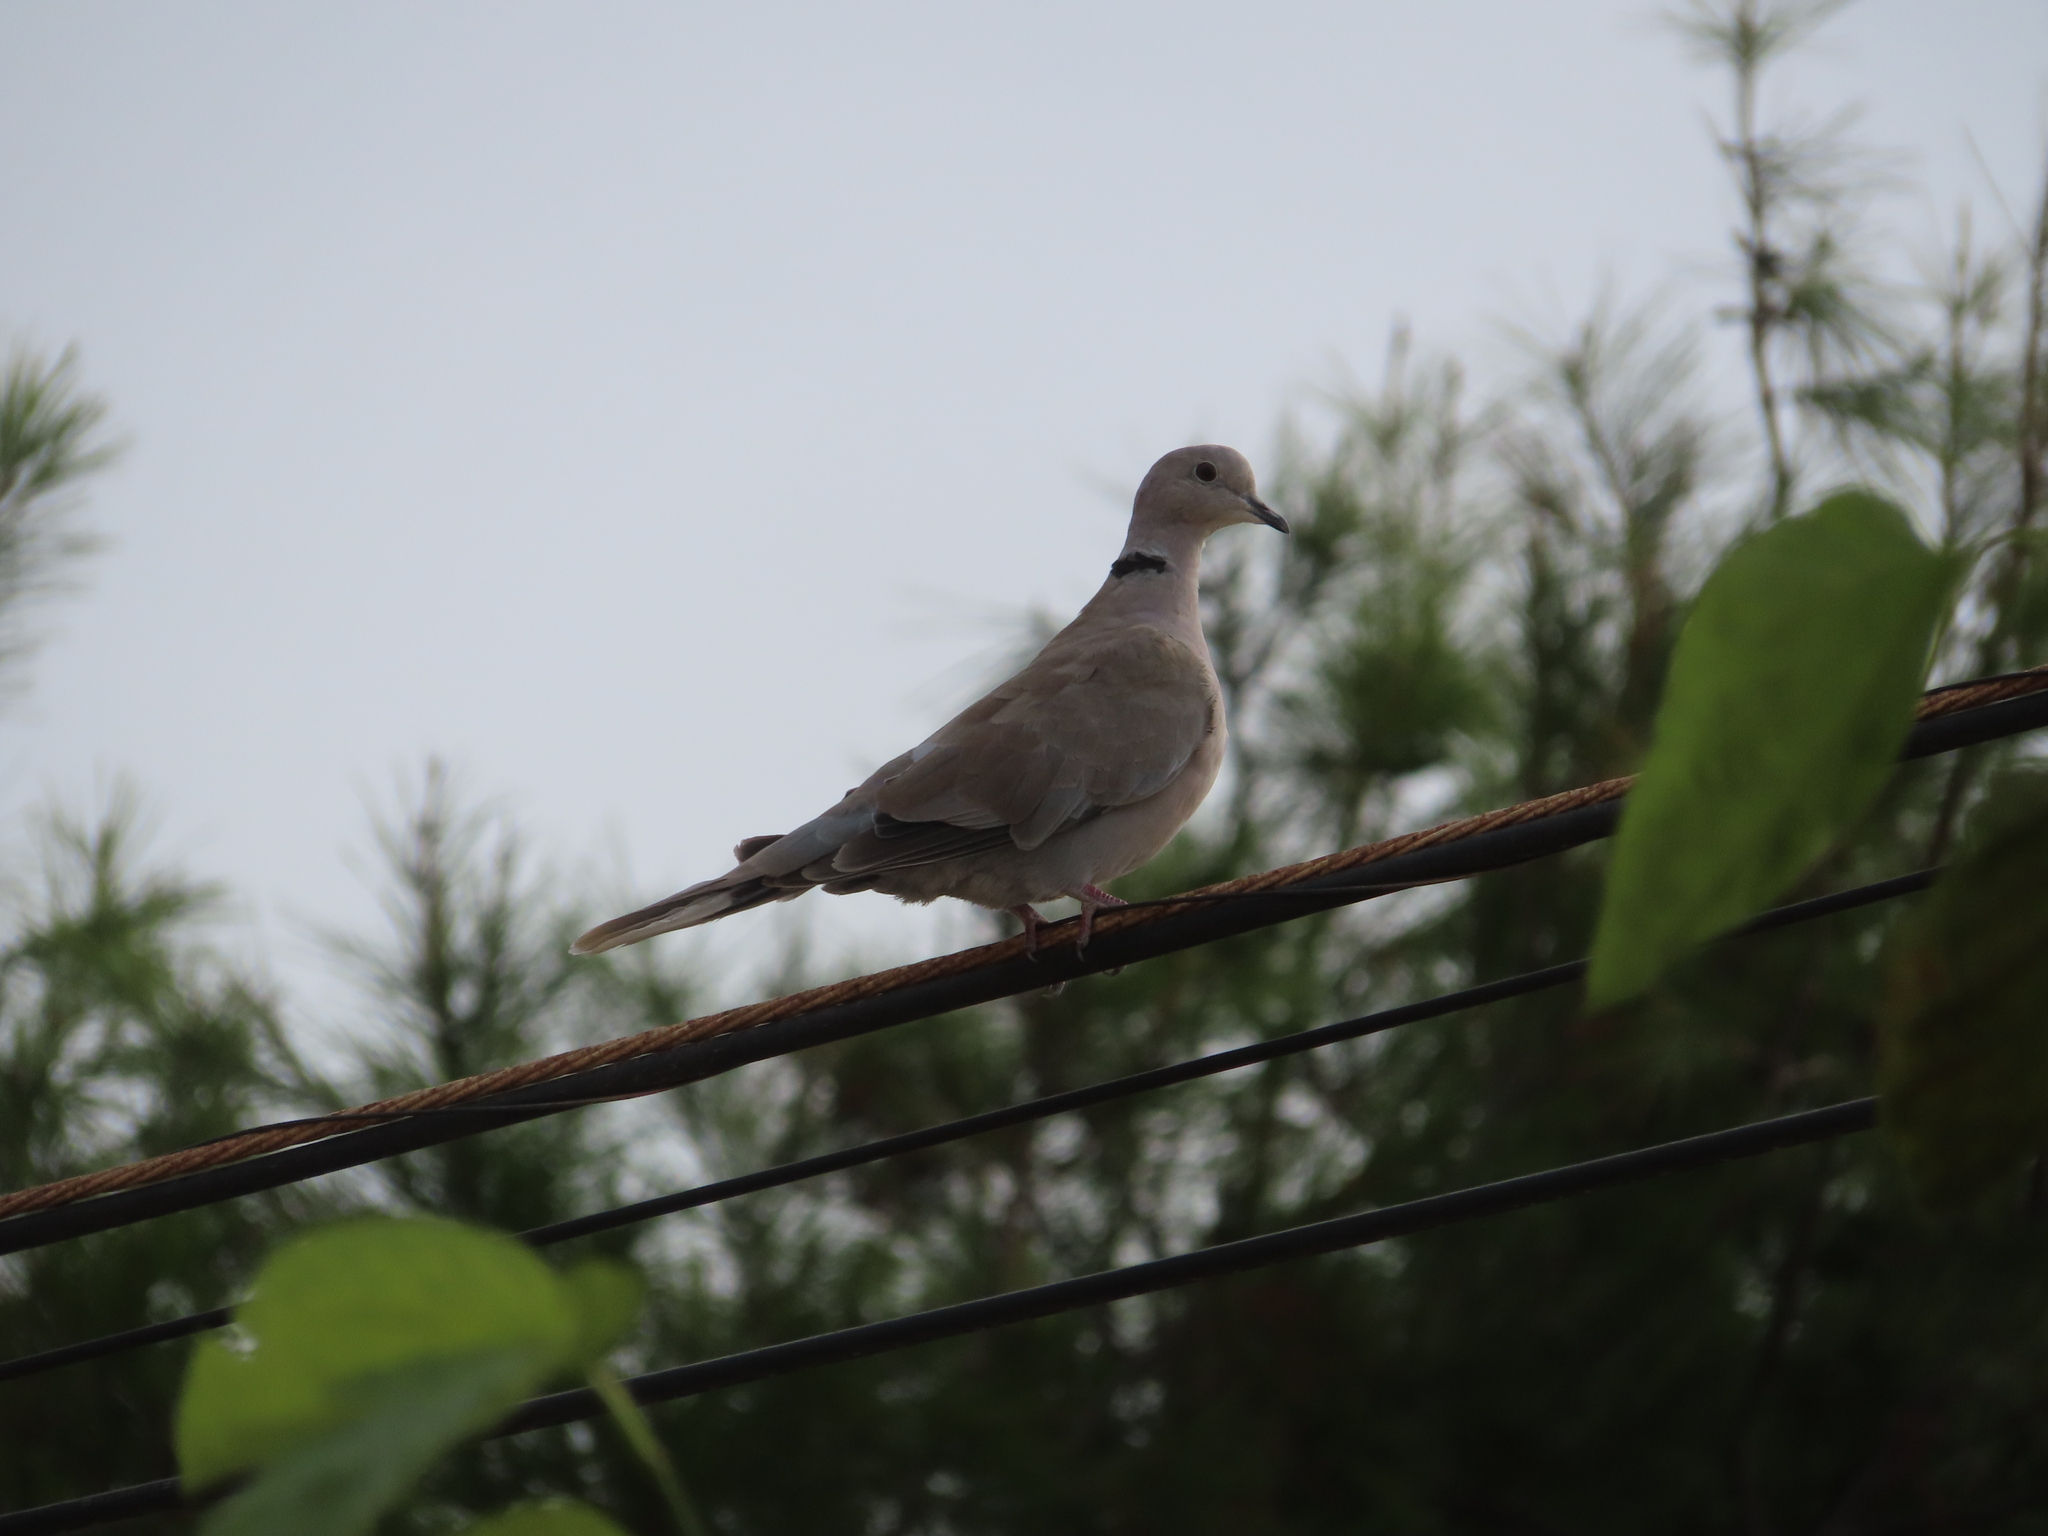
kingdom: Animalia
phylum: Chordata
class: Aves
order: Columbiformes
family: Columbidae
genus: Streptopelia
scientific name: Streptopelia decaocto
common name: Eurasian collared dove
